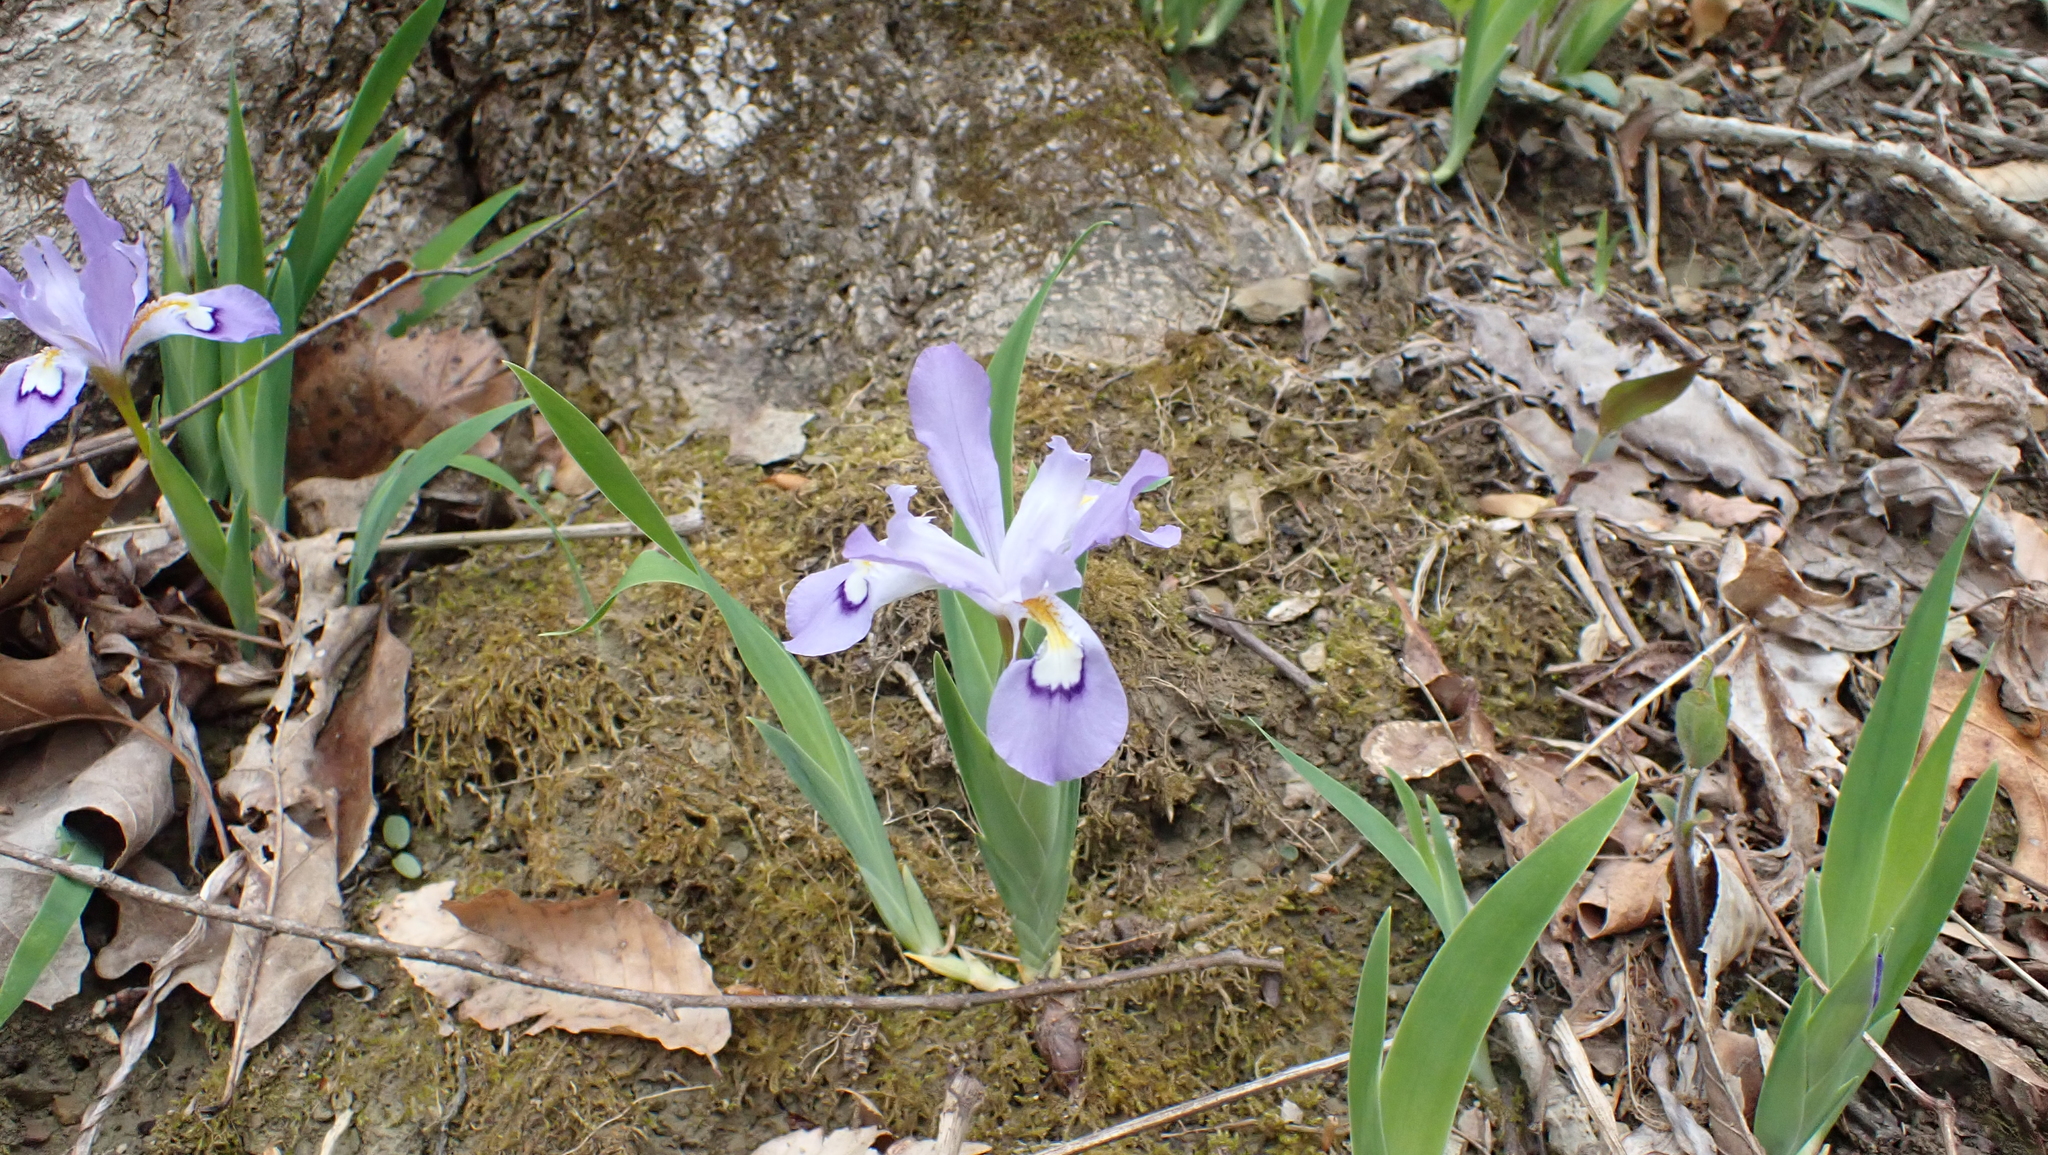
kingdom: Plantae
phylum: Tracheophyta
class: Liliopsida
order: Asparagales
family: Iridaceae
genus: Iris
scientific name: Iris cristata
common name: Crested iris
